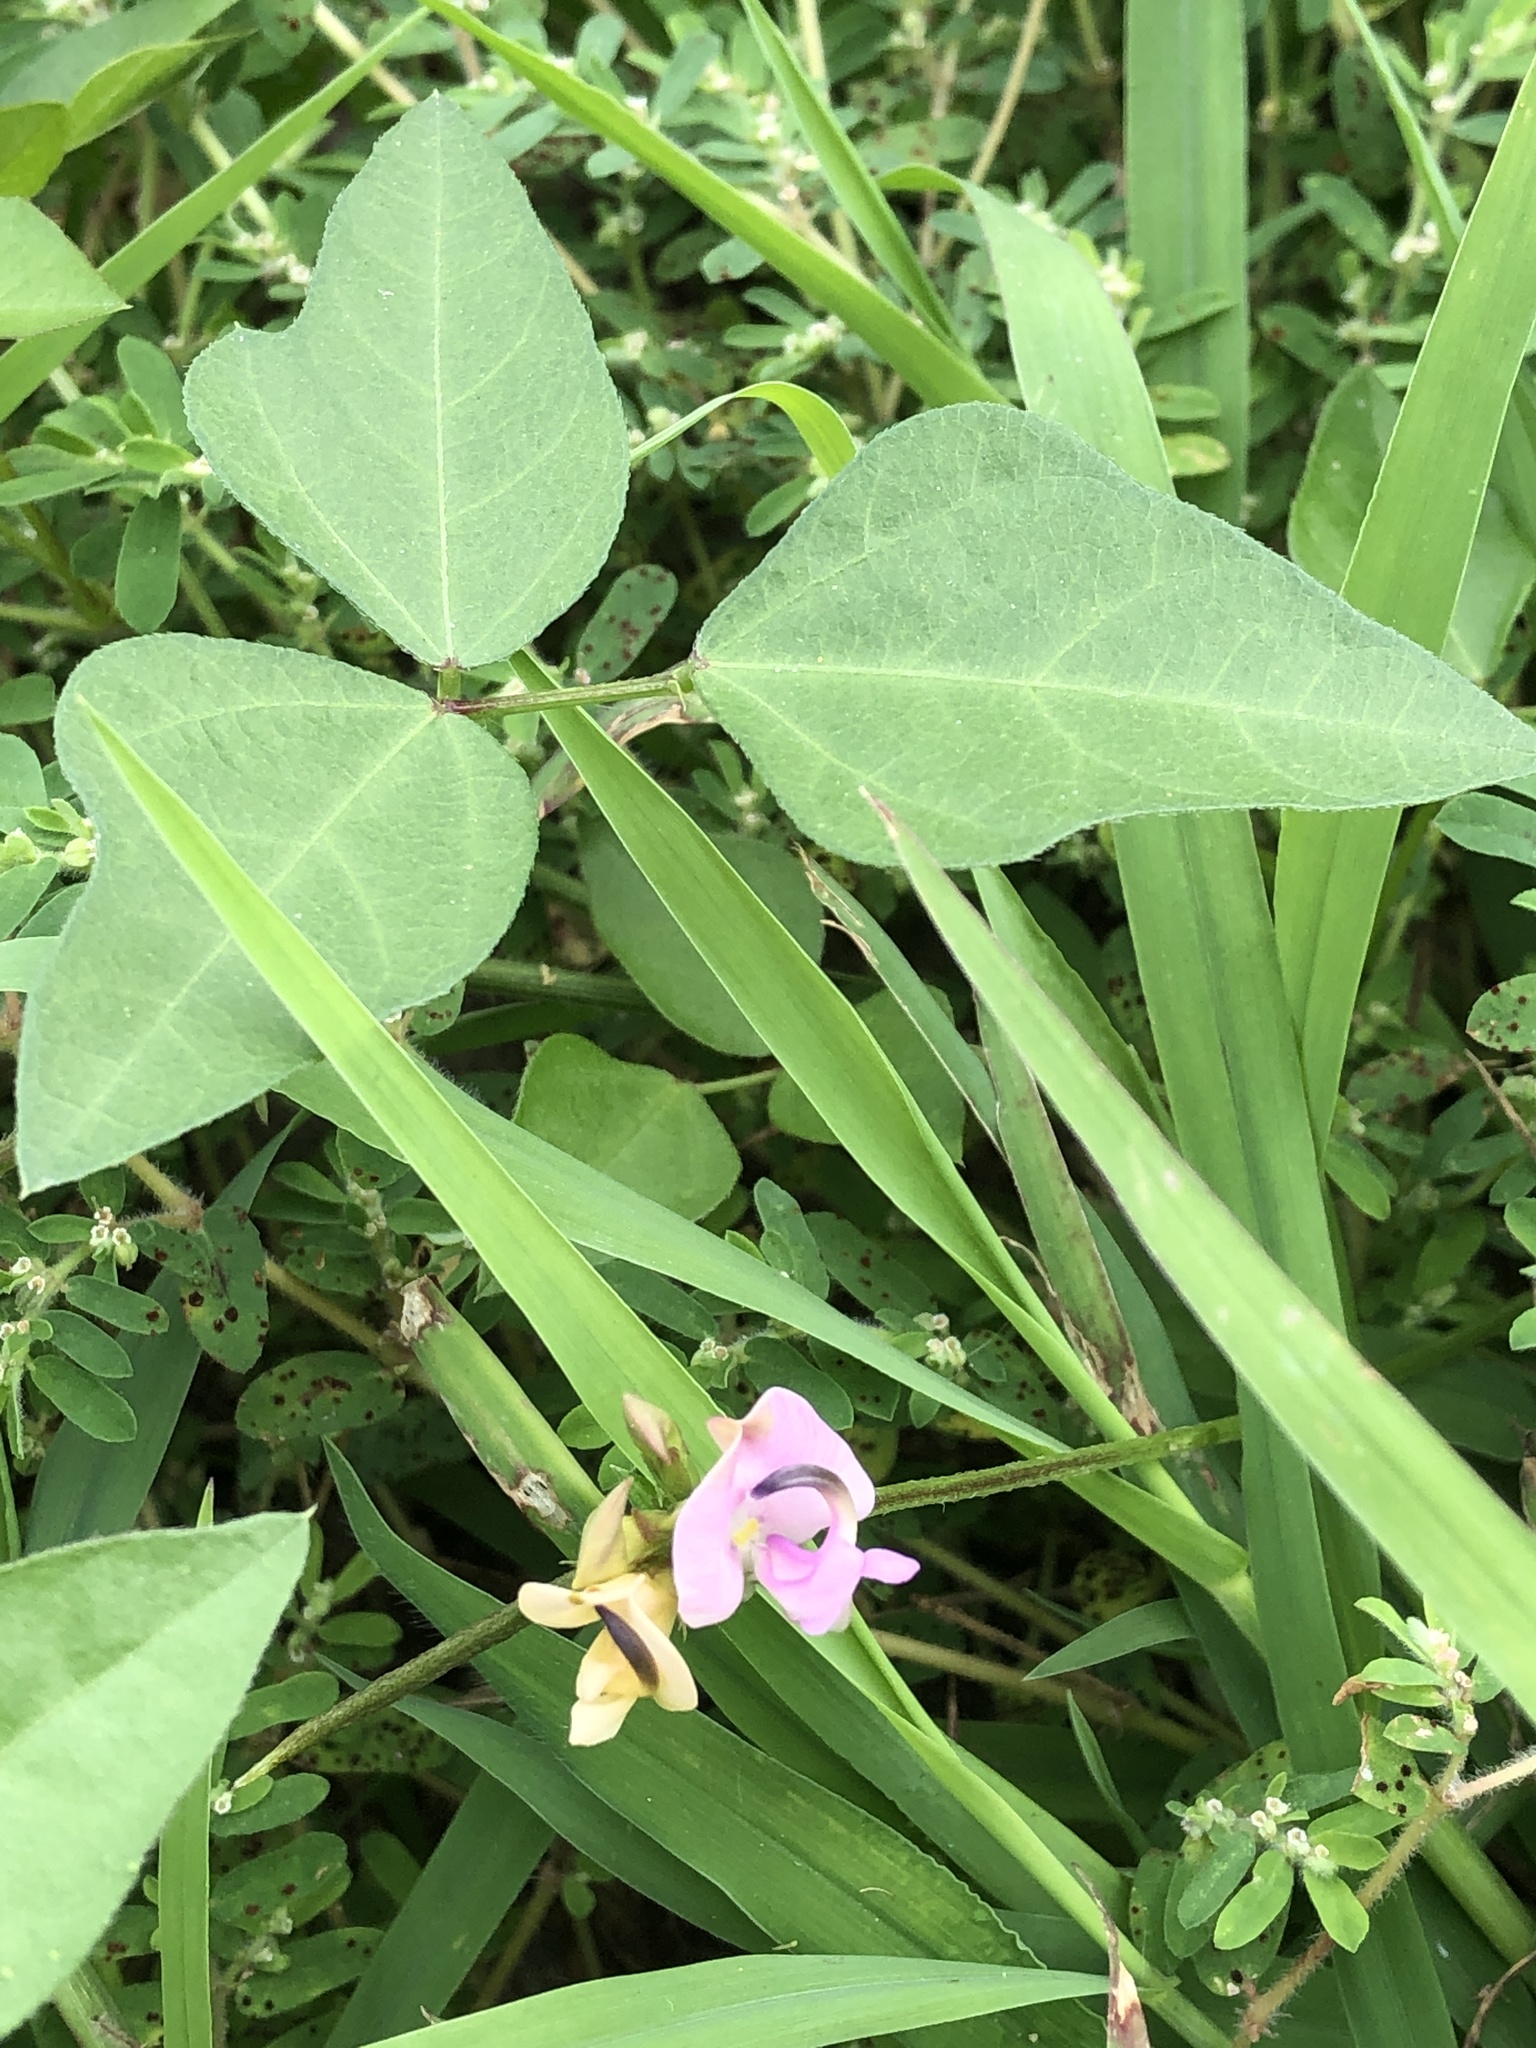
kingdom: Plantae
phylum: Tracheophyta
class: Magnoliopsida
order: Fabales
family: Fabaceae
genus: Strophostyles
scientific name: Strophostyles helvola
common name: Trailing wild bean
